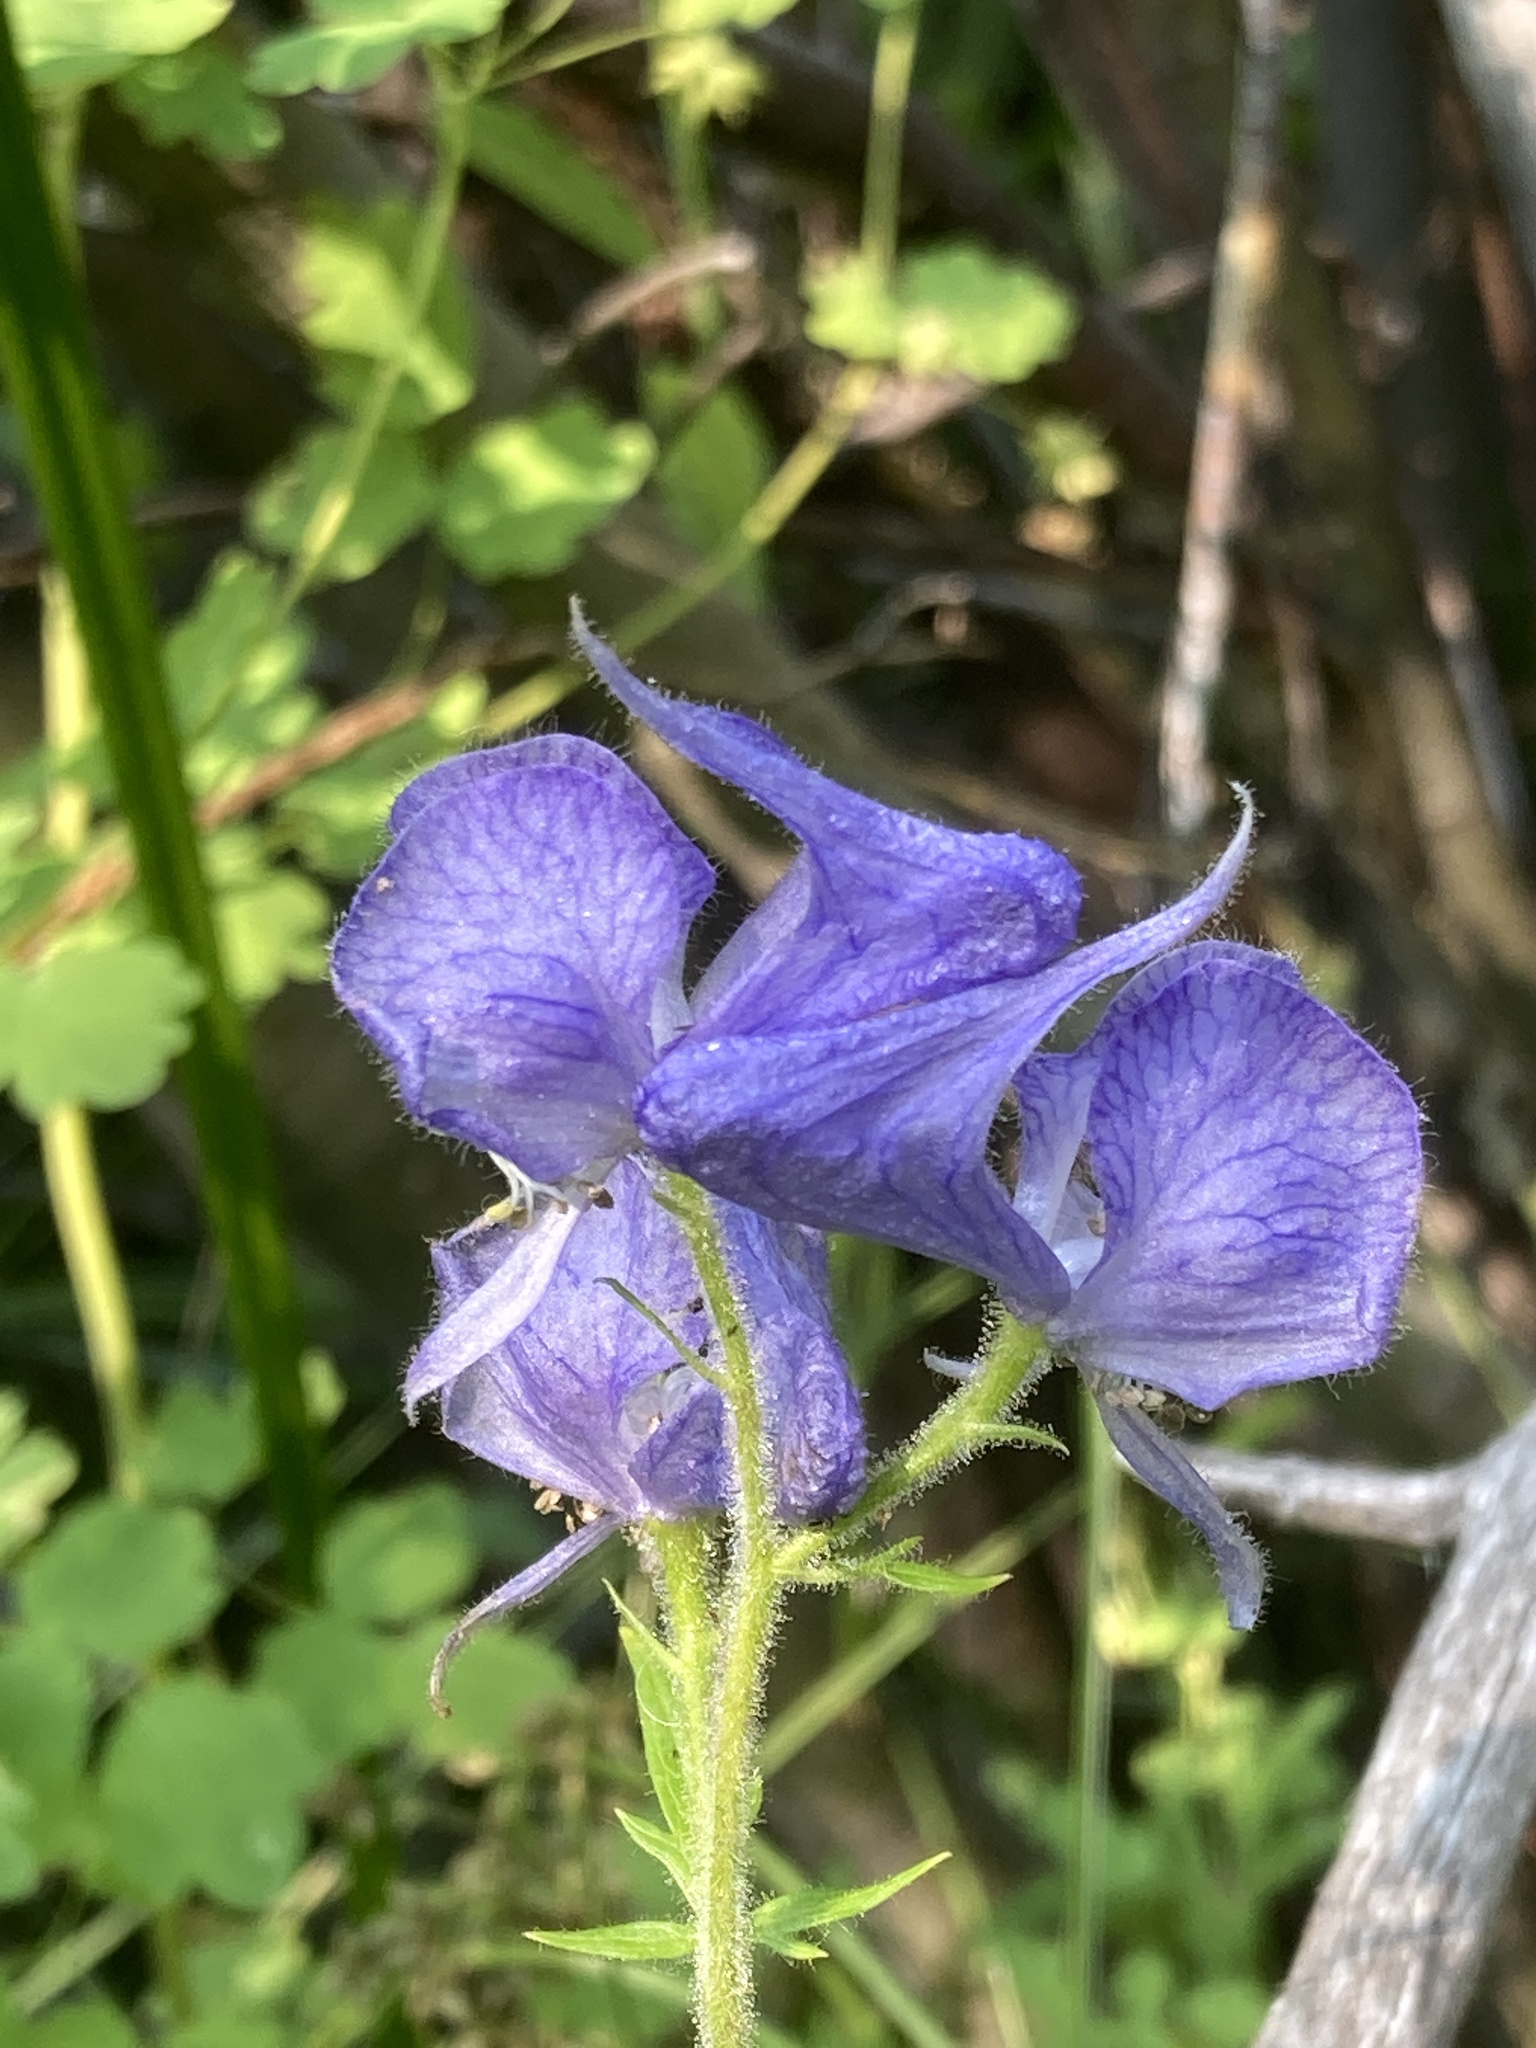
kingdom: Plantae
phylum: Tracheophyta
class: Magnoliopsida
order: Ranunculales
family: Ranunculaceae
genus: Aconitum
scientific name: Aconitum columbianum
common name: Columbia aconite
